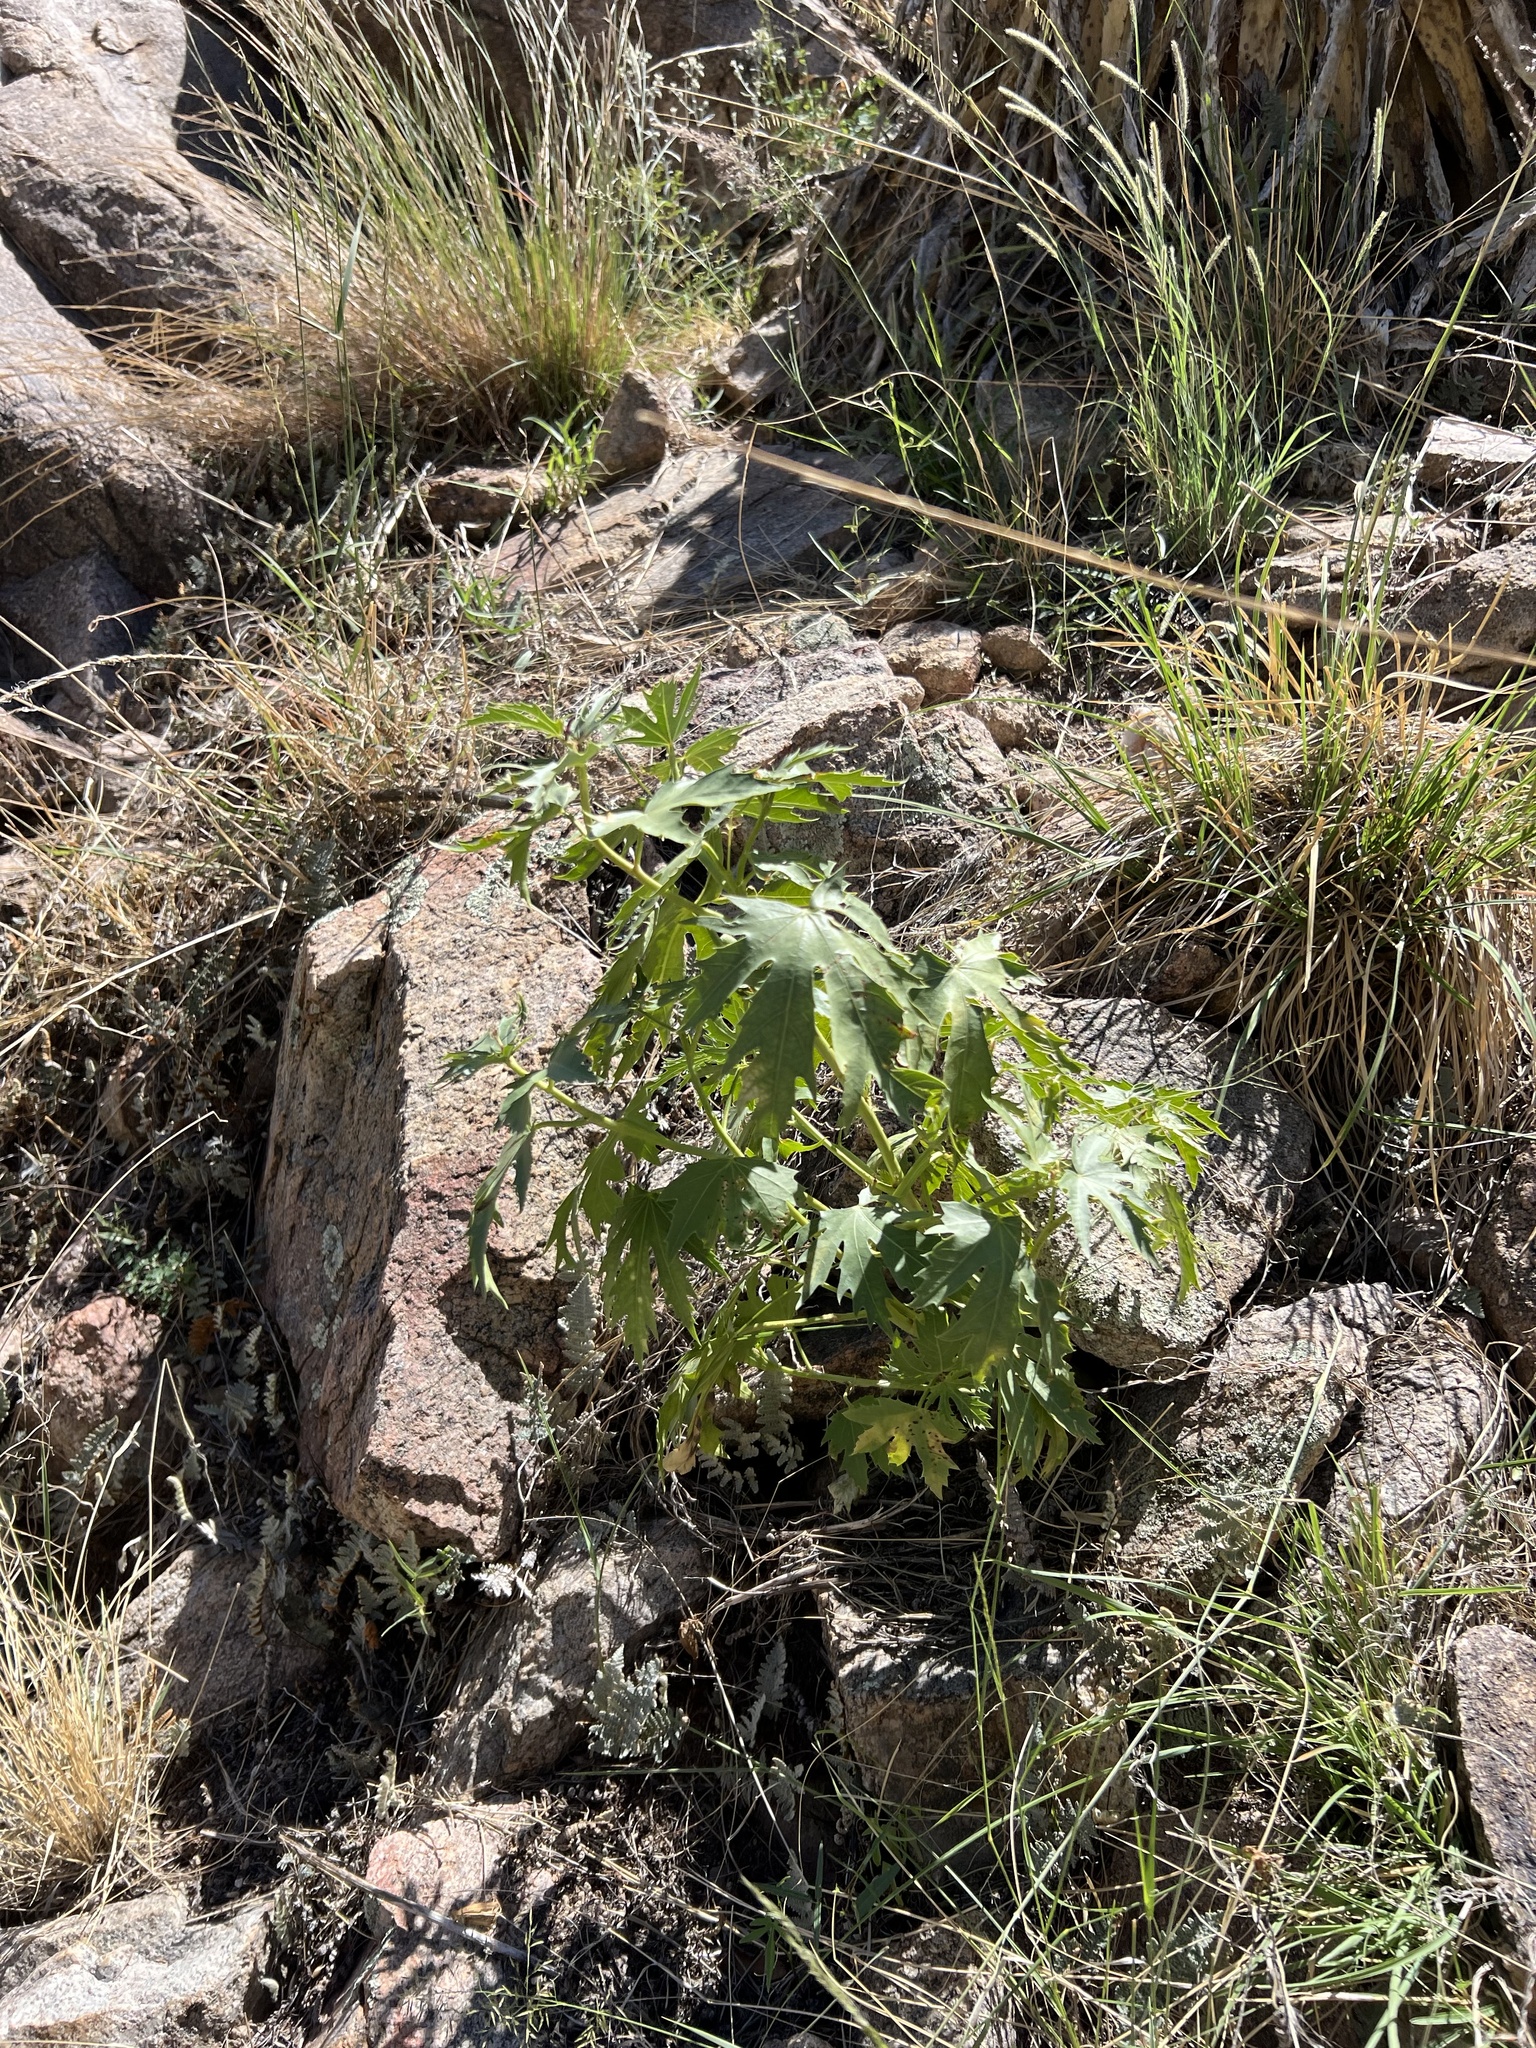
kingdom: Plantae
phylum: Tracheophyta
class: Magnoliopsida
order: Malpighiales
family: Euphorbiaceae
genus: Jatropha
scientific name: Jatropha macrorhiza
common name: Ragged nettlespurge
